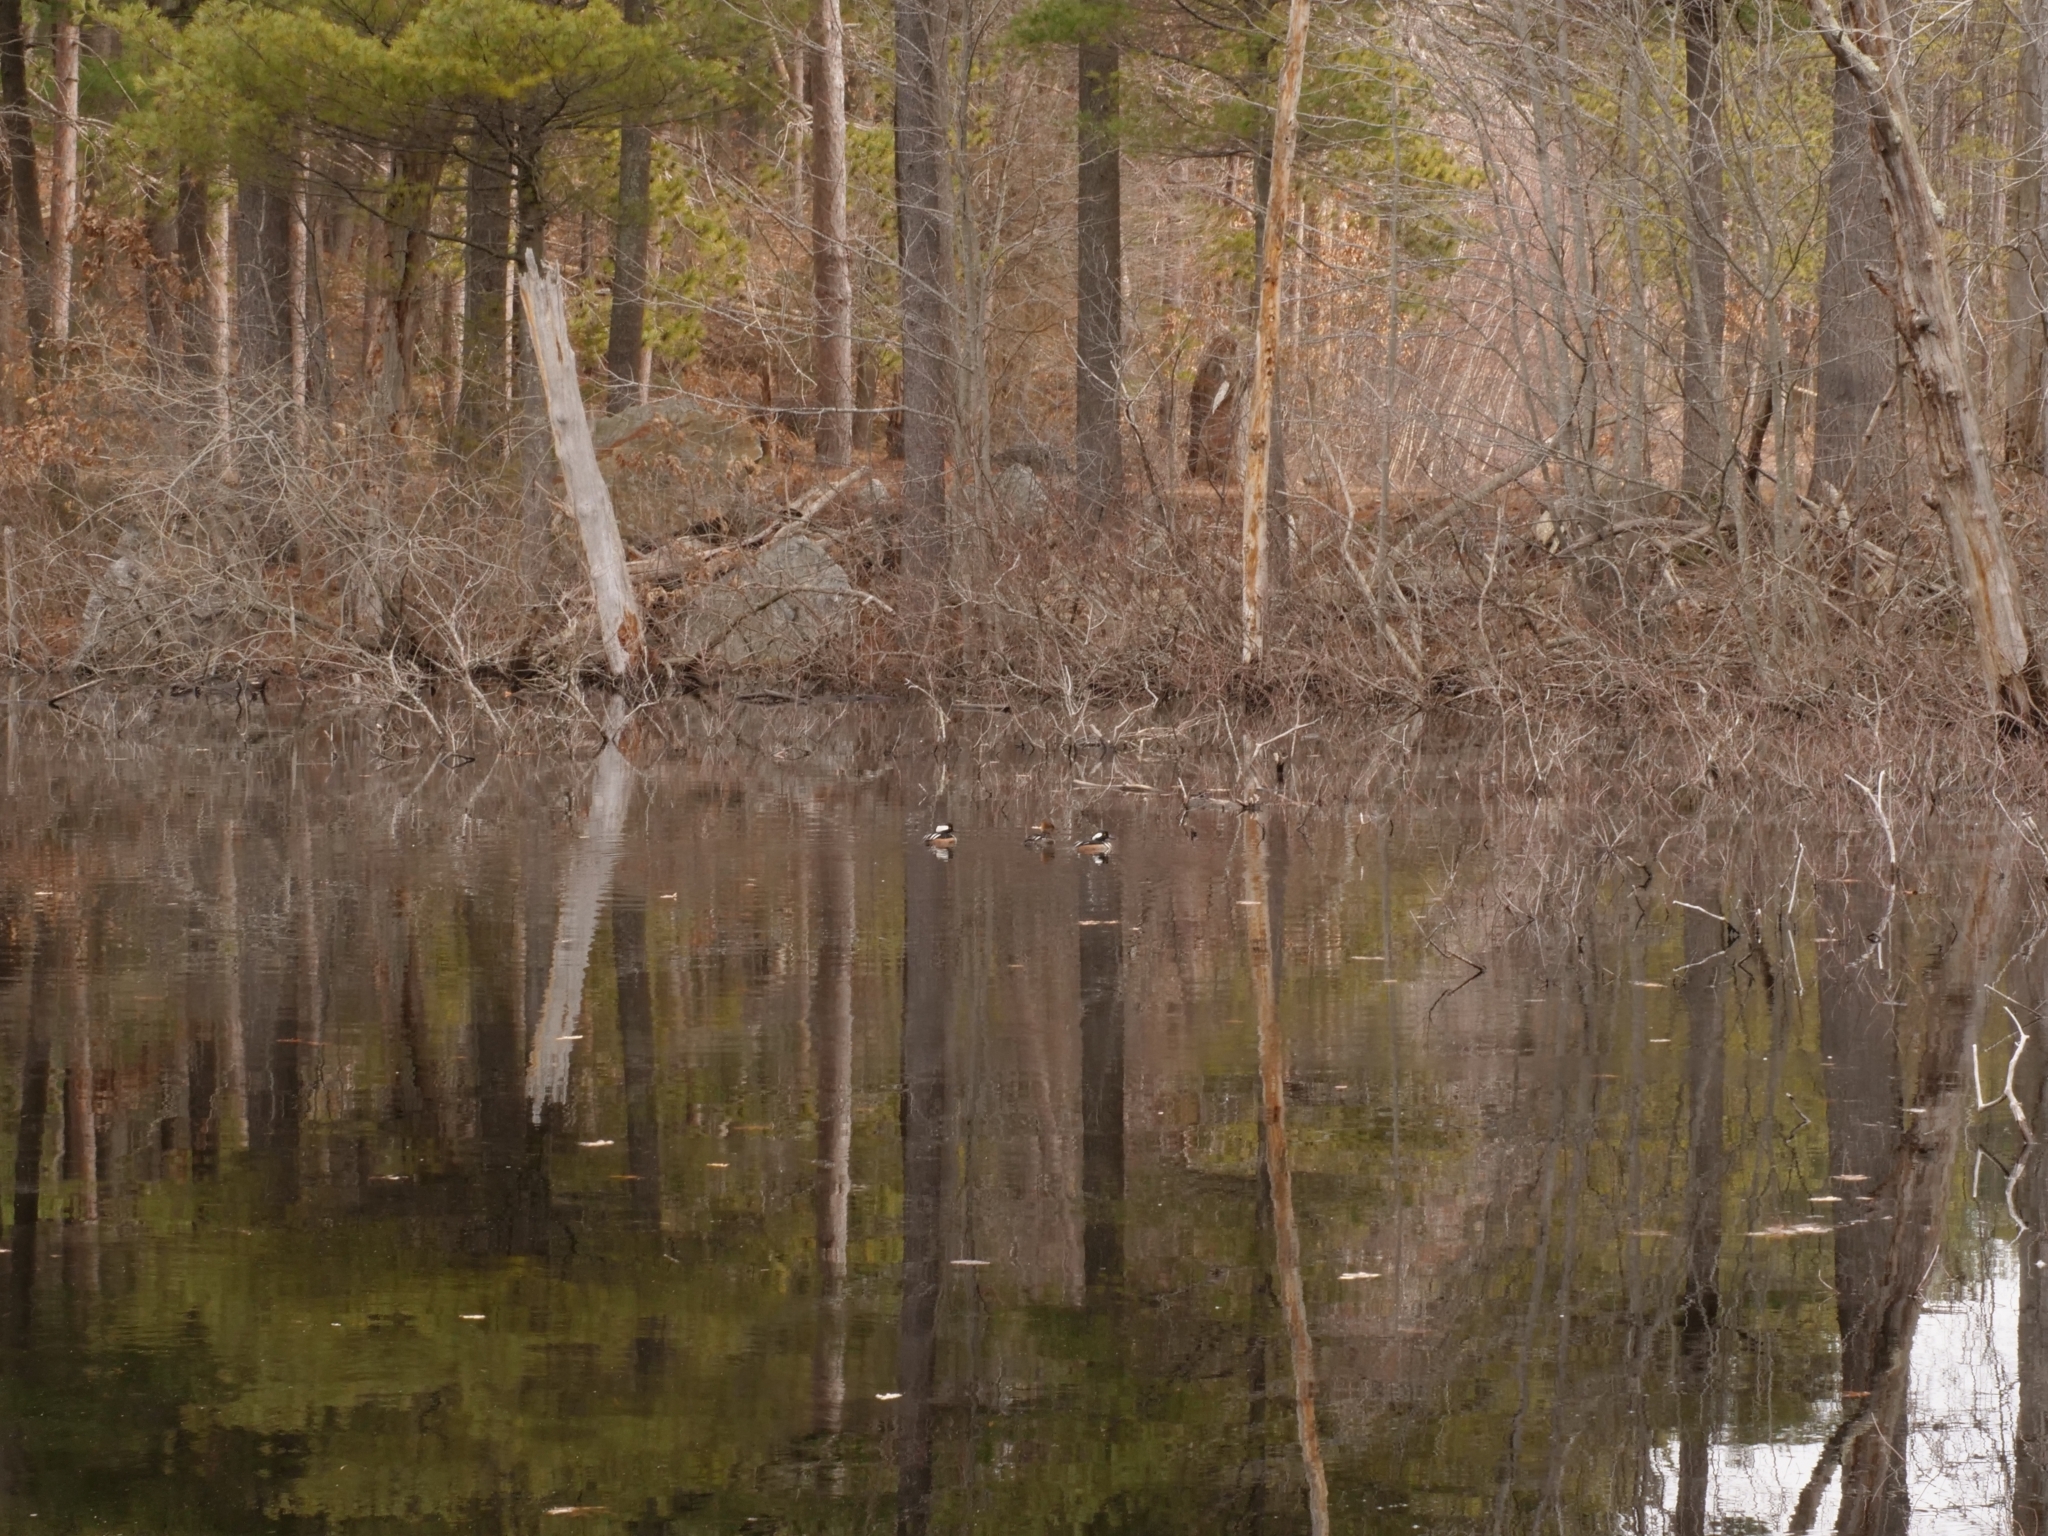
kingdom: Animalia
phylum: Chordata
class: Aves
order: Anseriformes
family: Anatidae
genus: Lophodytes
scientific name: Lophodytes cucullatus
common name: Hooded merganser
